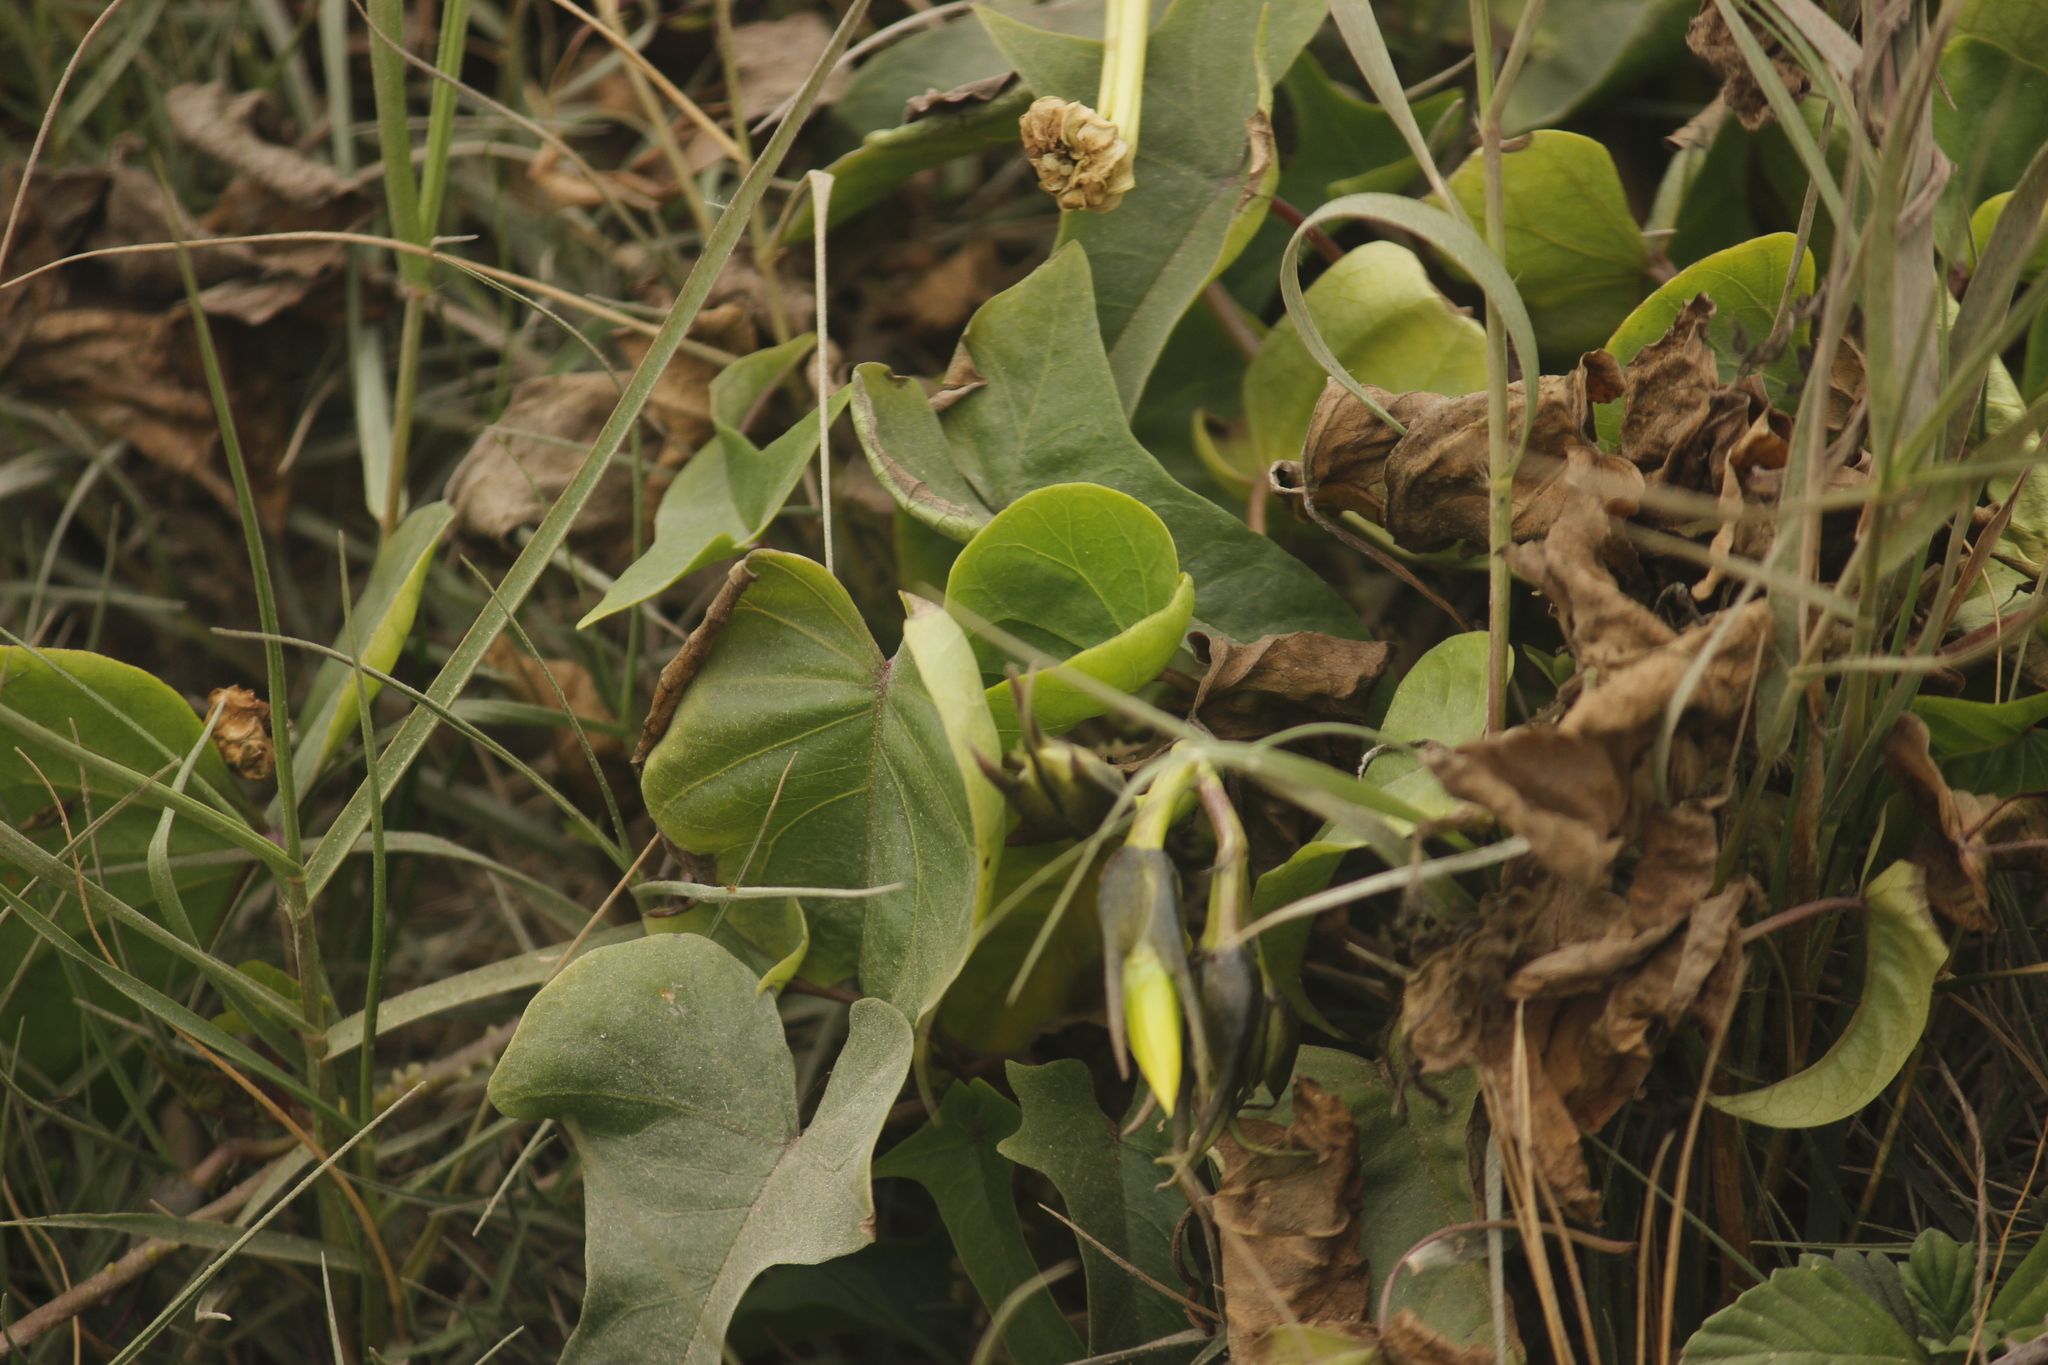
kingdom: Plantae
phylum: Tracheophyta
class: Magnoliopsida
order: Solanales
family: Convolvulaceae
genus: Ipomoea
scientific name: Ipomoea alba
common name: Moonflower
